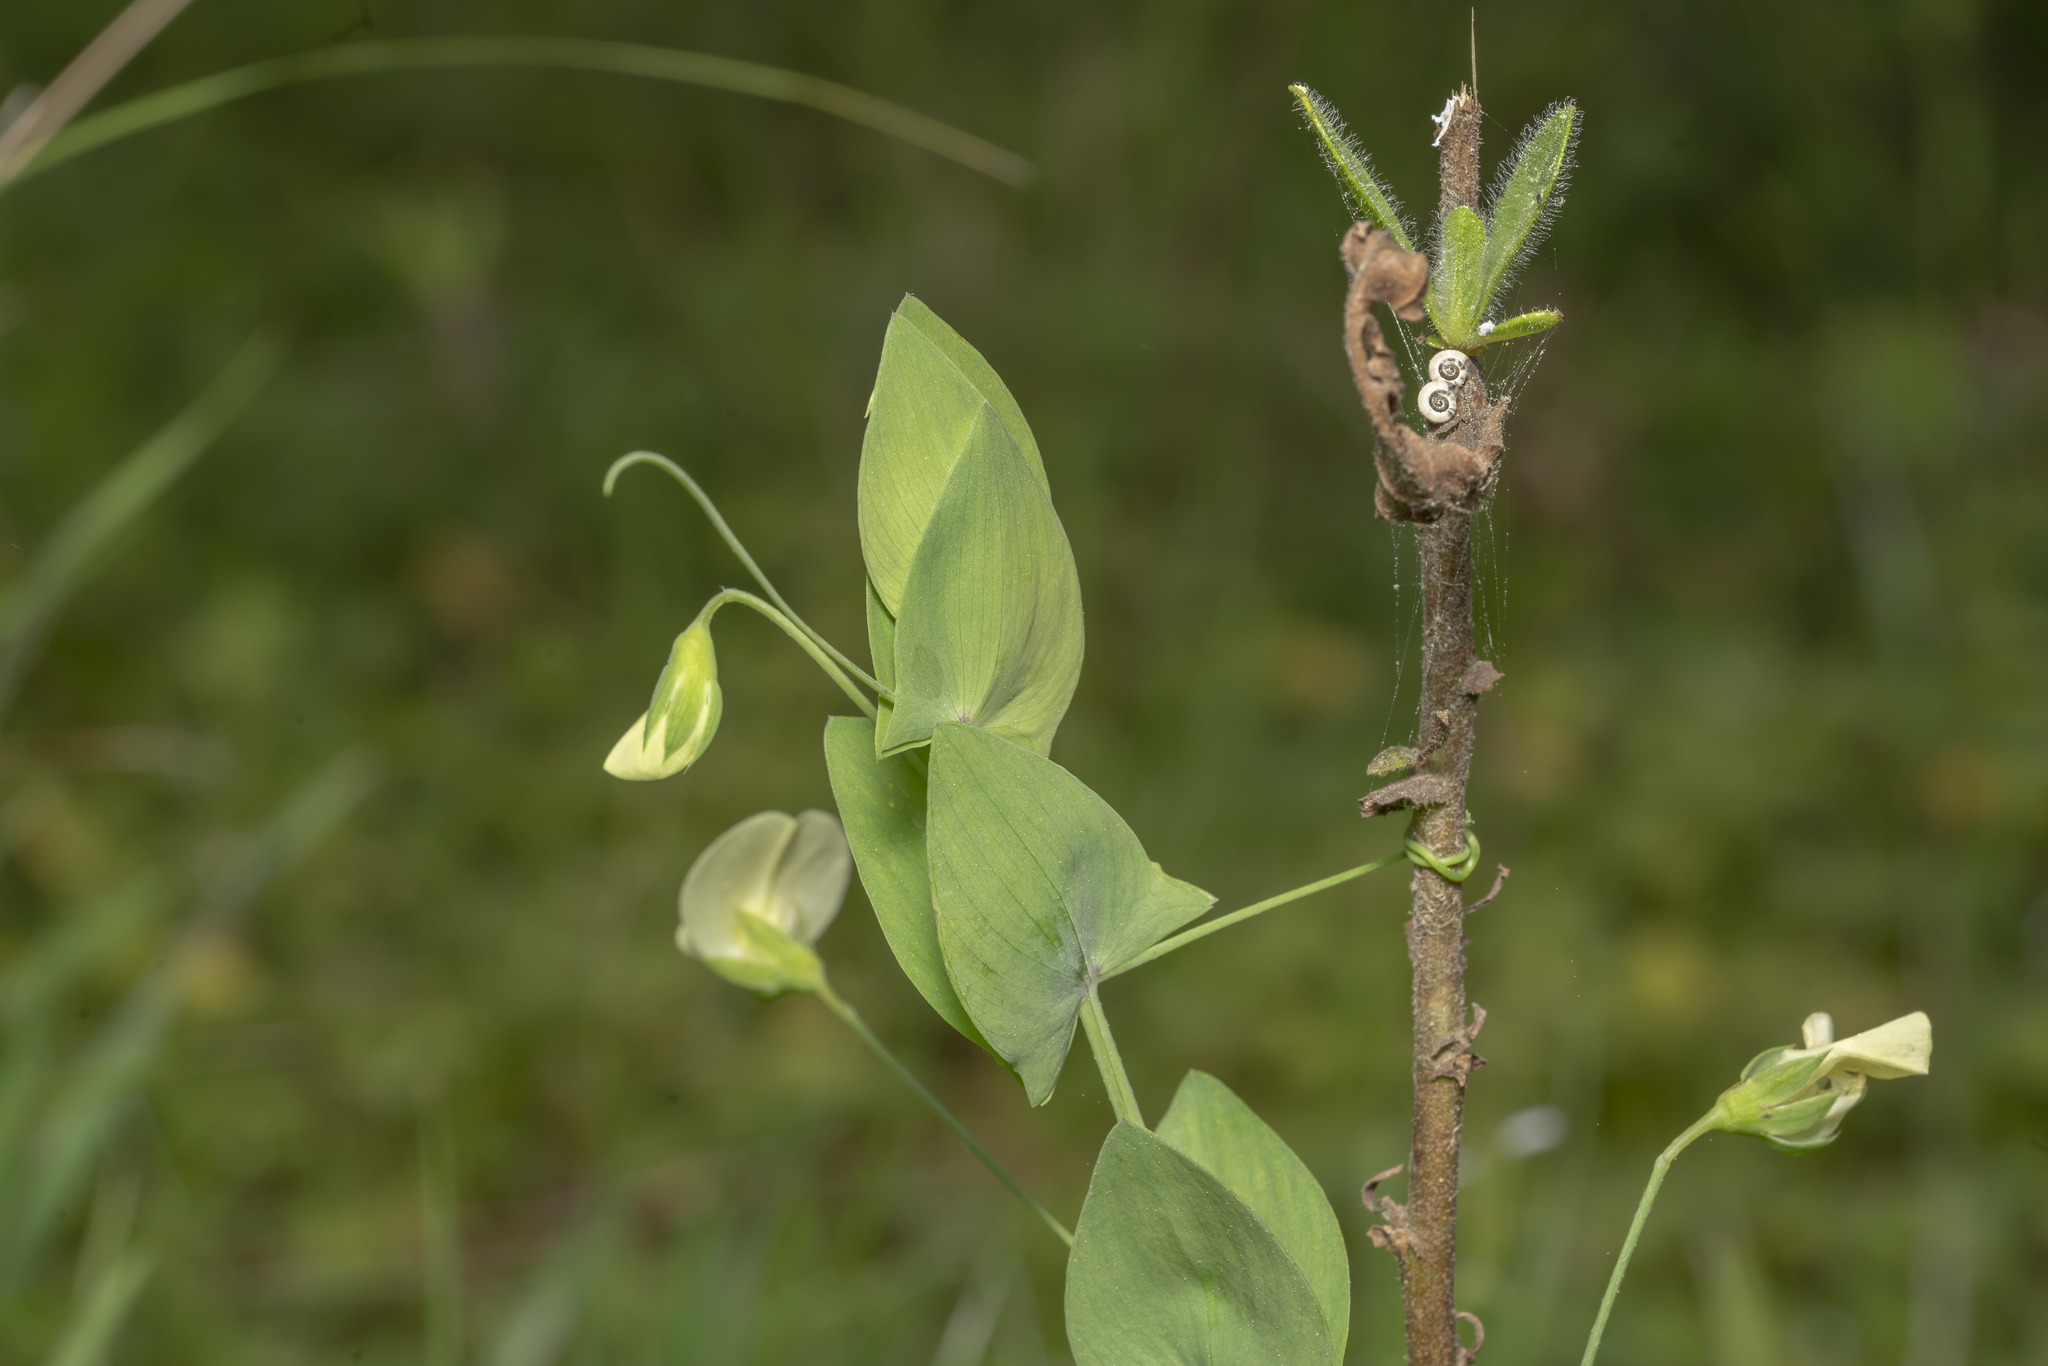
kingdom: Plantae
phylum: Tracheophyta
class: Magnoliopsida
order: Fabales
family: Fabaceae
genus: Lathyrus
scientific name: Lathyrus aphaca
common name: Yellow vetchling
